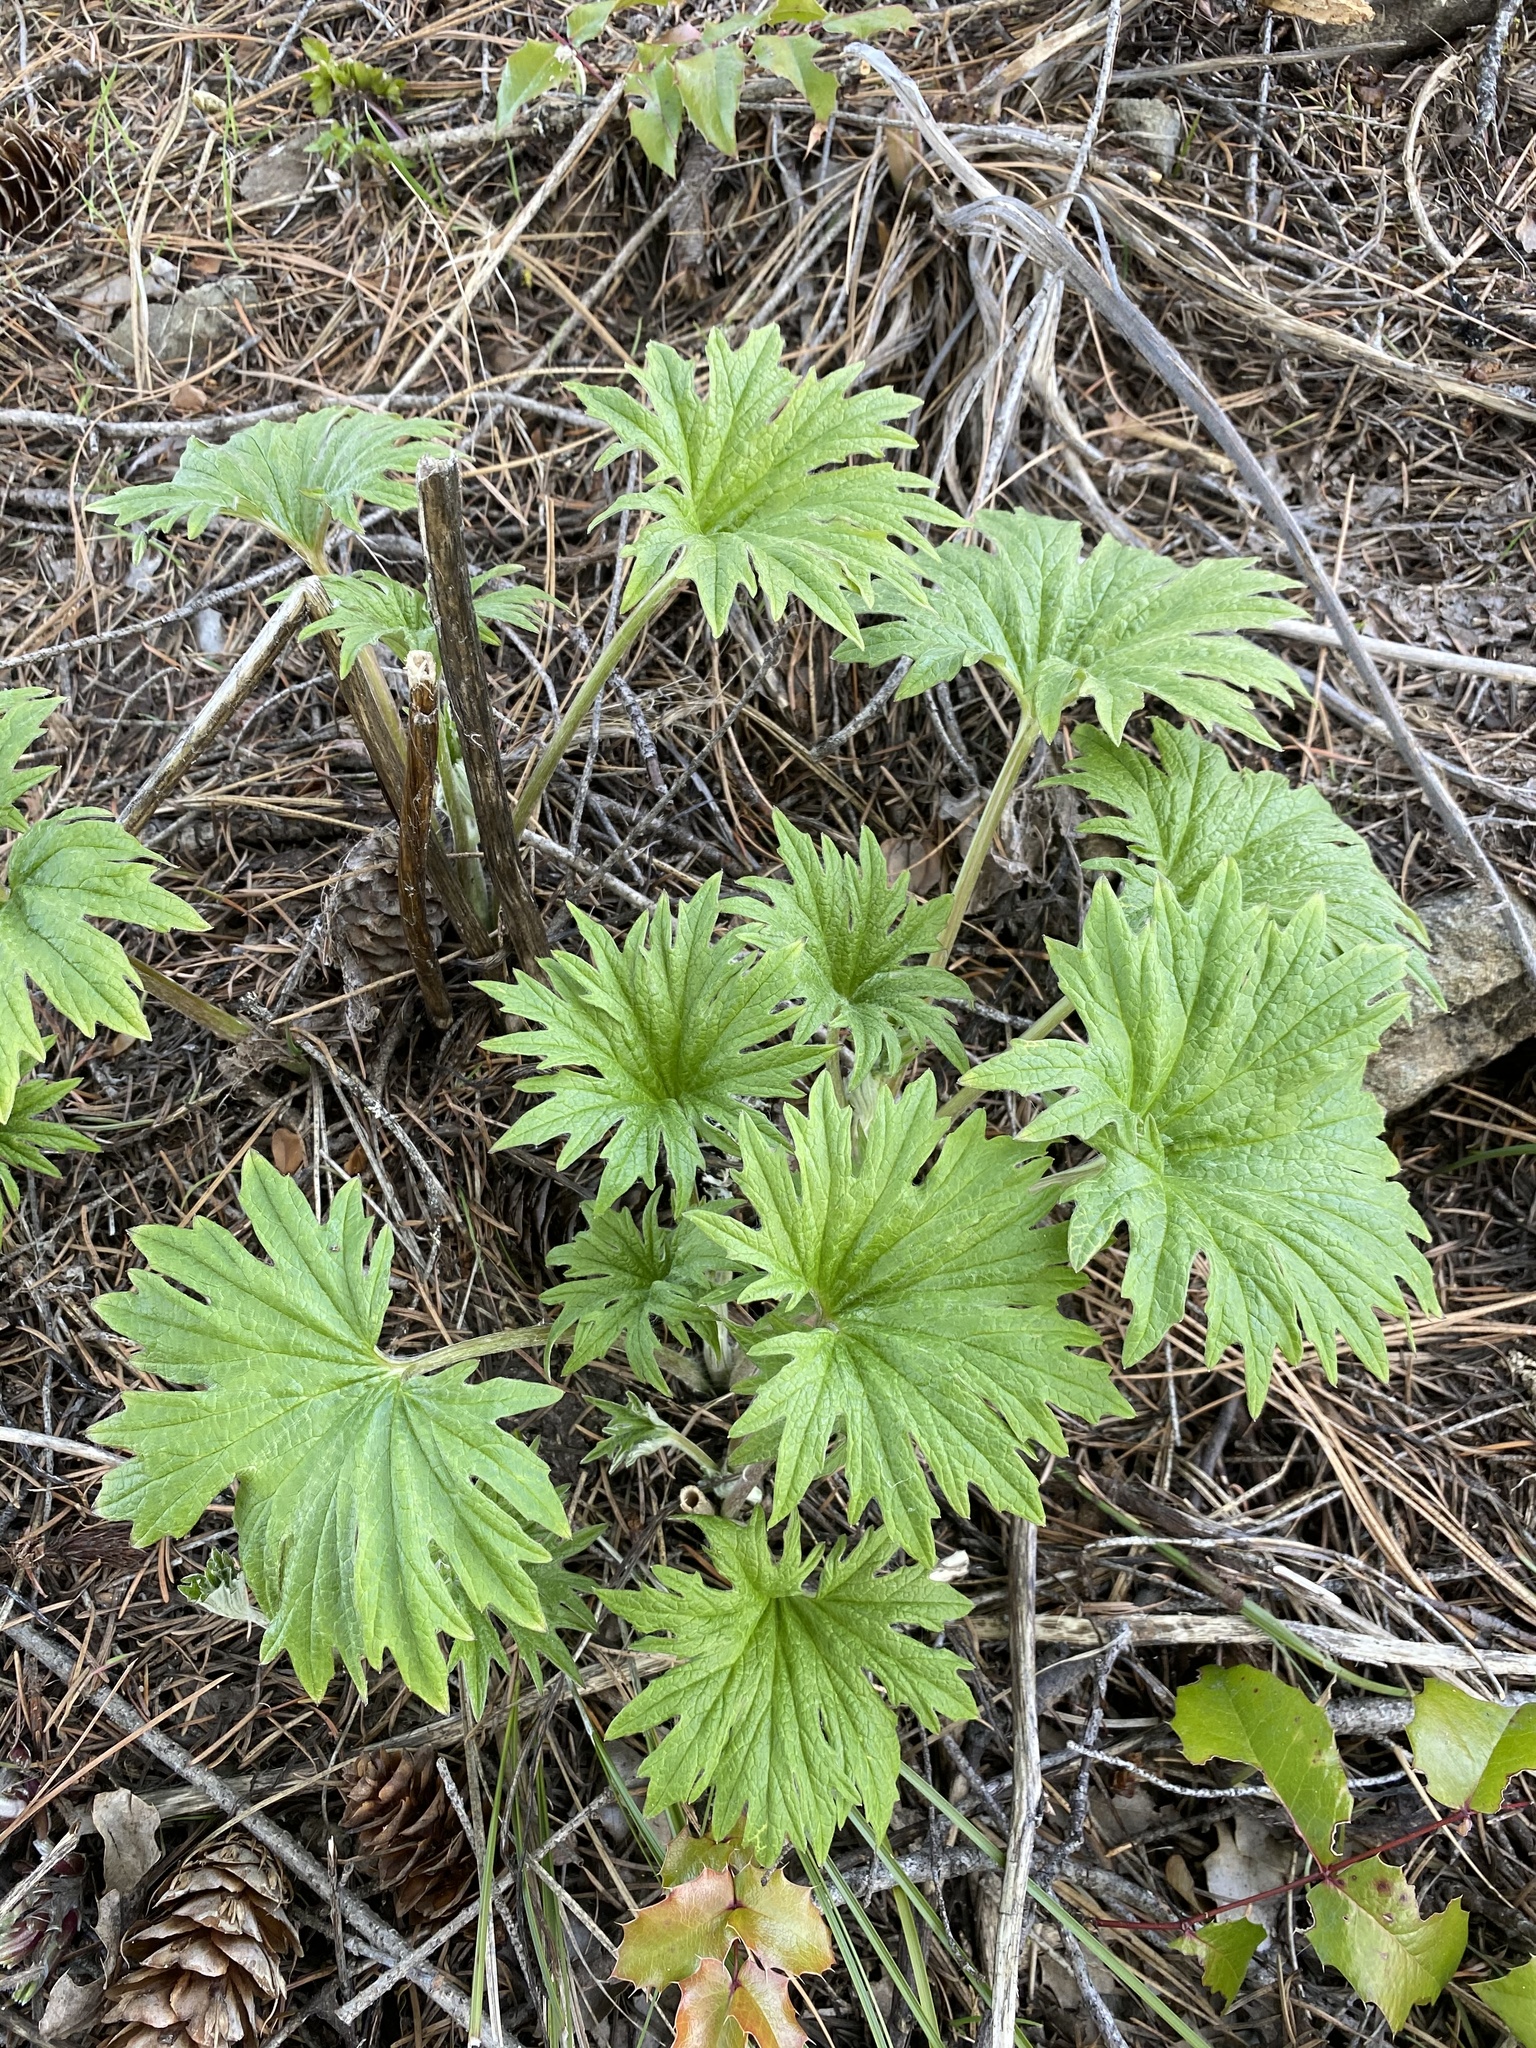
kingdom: Plantae
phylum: Tracheophyta
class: Magnoliopsida
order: Asterales
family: Asteraceae
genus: Cacaliopsis
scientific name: Cacaliopsis nardosmia
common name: Silvercrown
